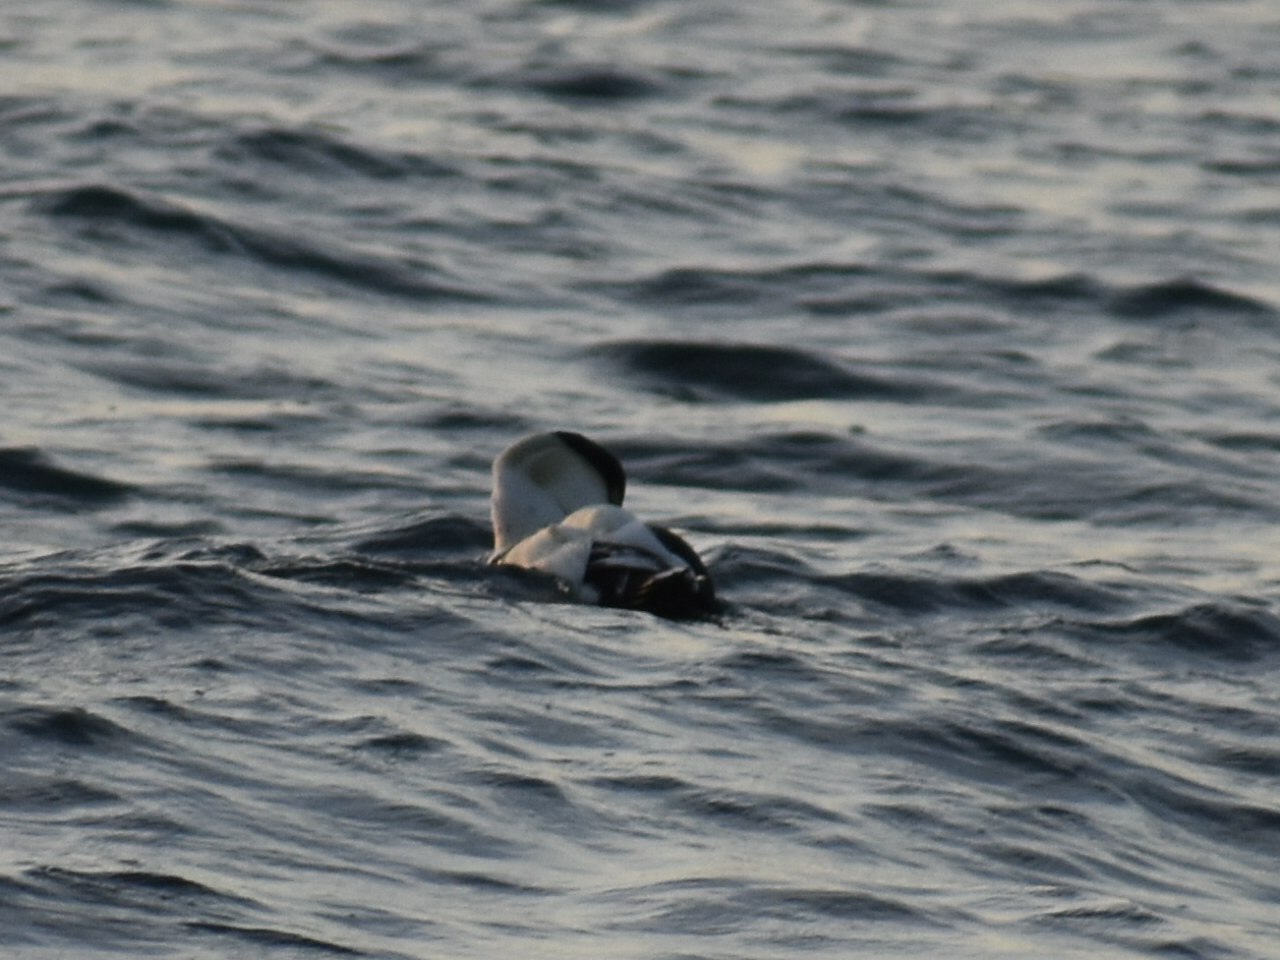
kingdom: Animalia
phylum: Chordata
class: Aves
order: Anseriformes
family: Anatidae
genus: Somateria
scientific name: Somateria mollissima
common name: Common eider
